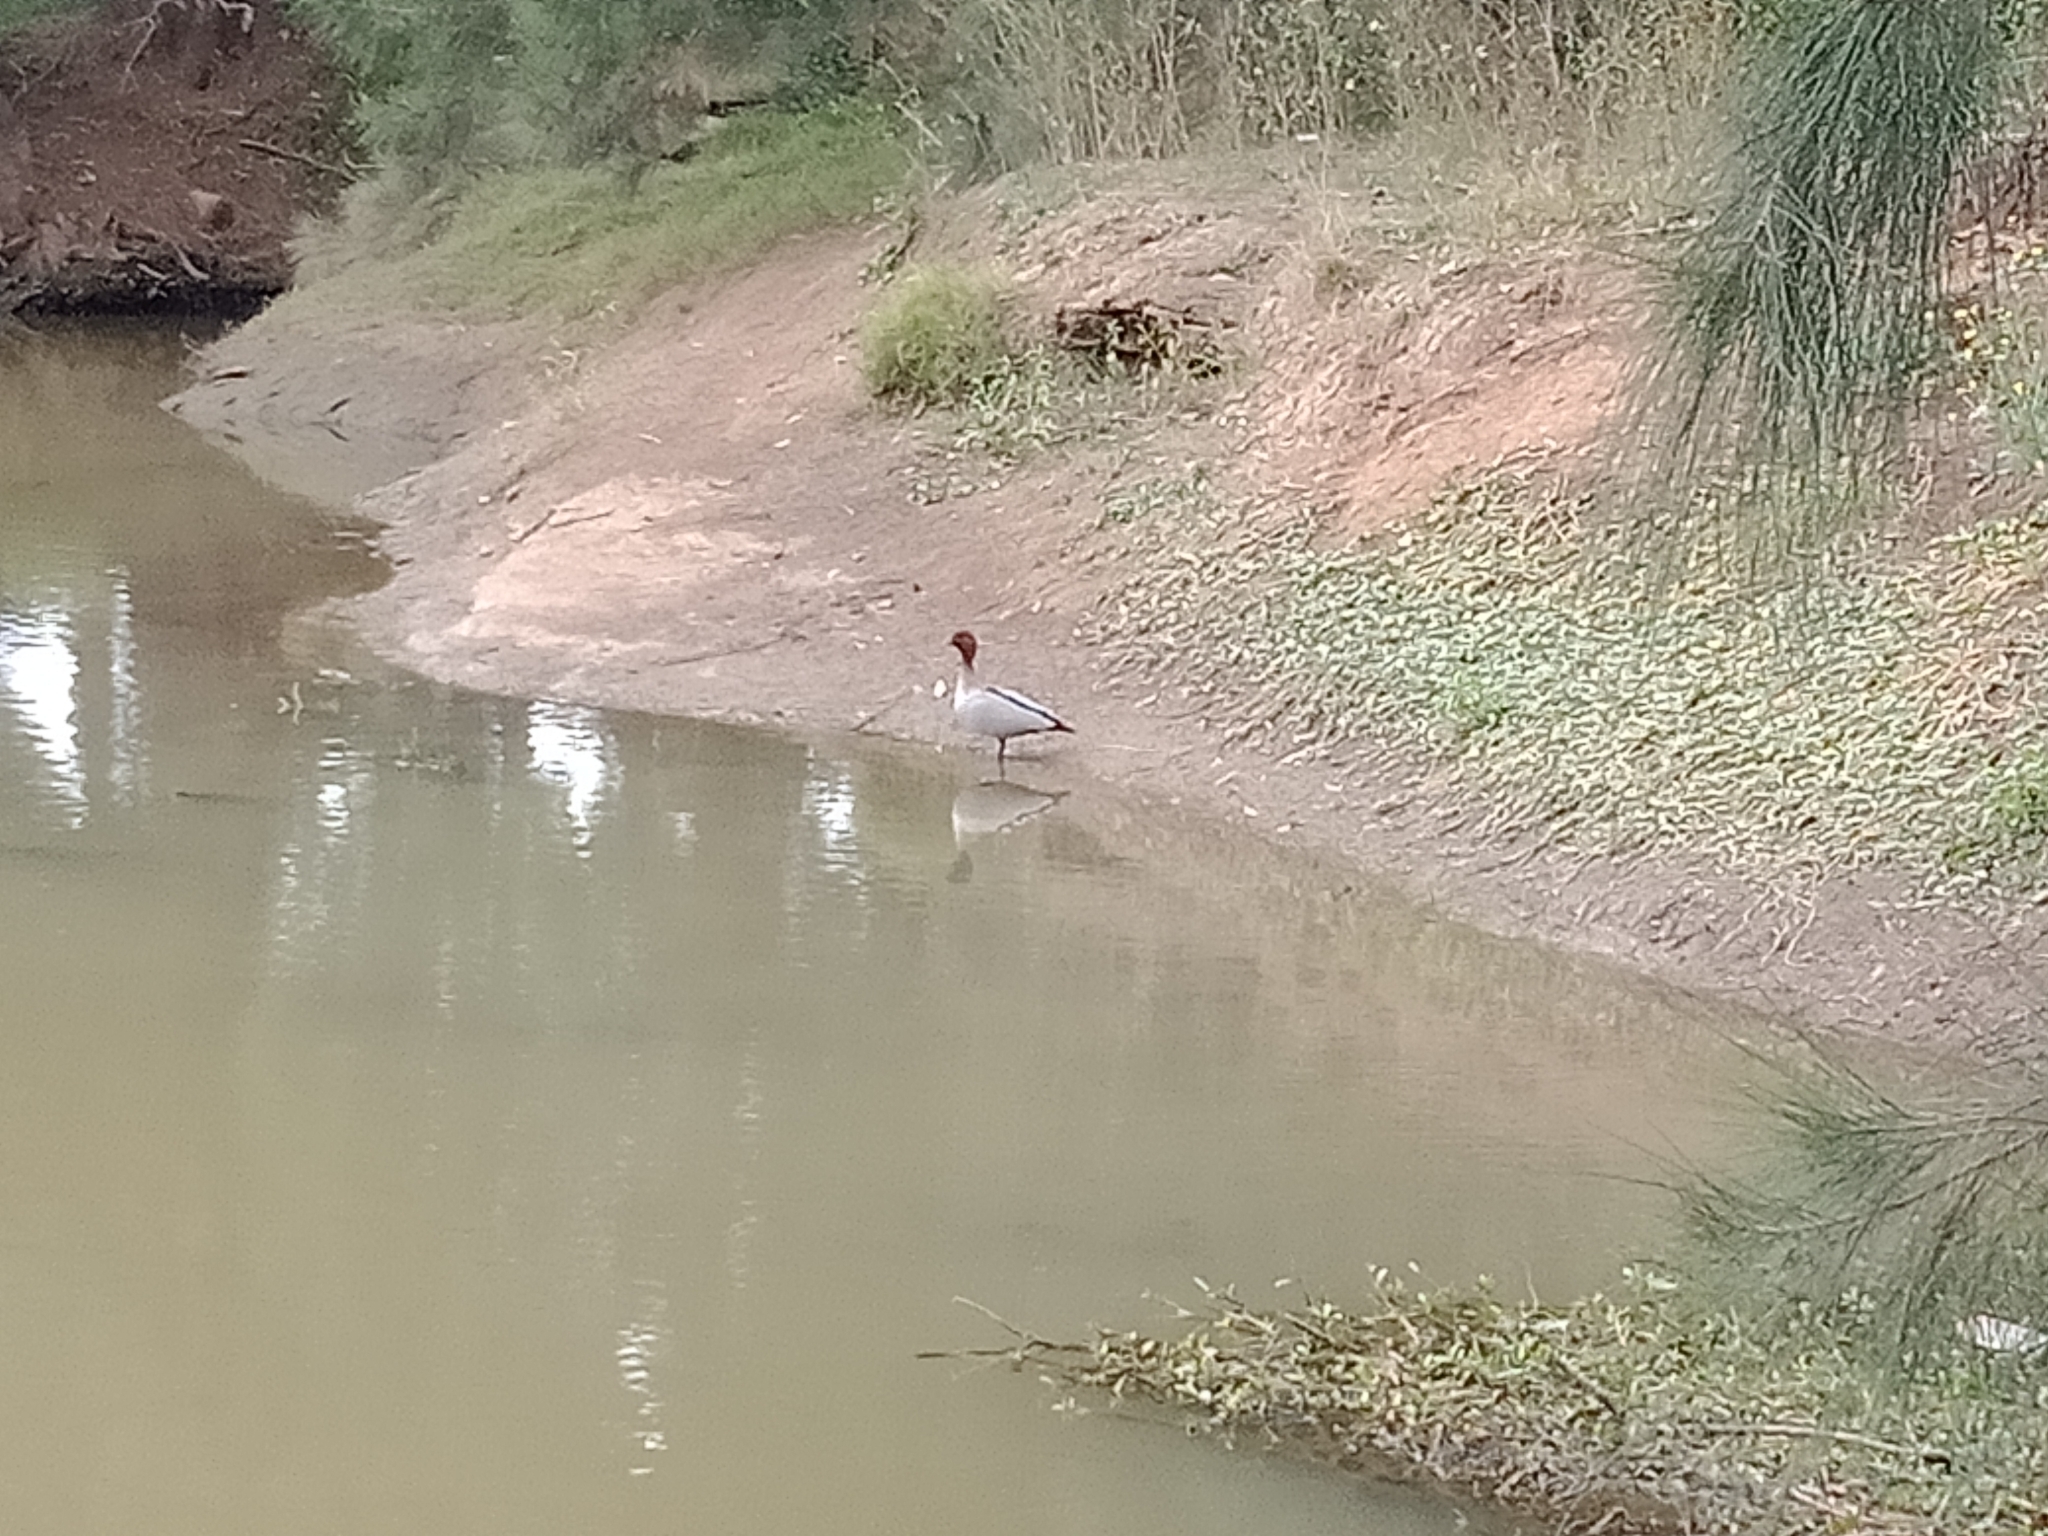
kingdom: Animalia
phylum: Chordata
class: Aves
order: Anseriformes
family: Anatidae
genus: Chenonetta
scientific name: Chenonetta jubata
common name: Maned duck
